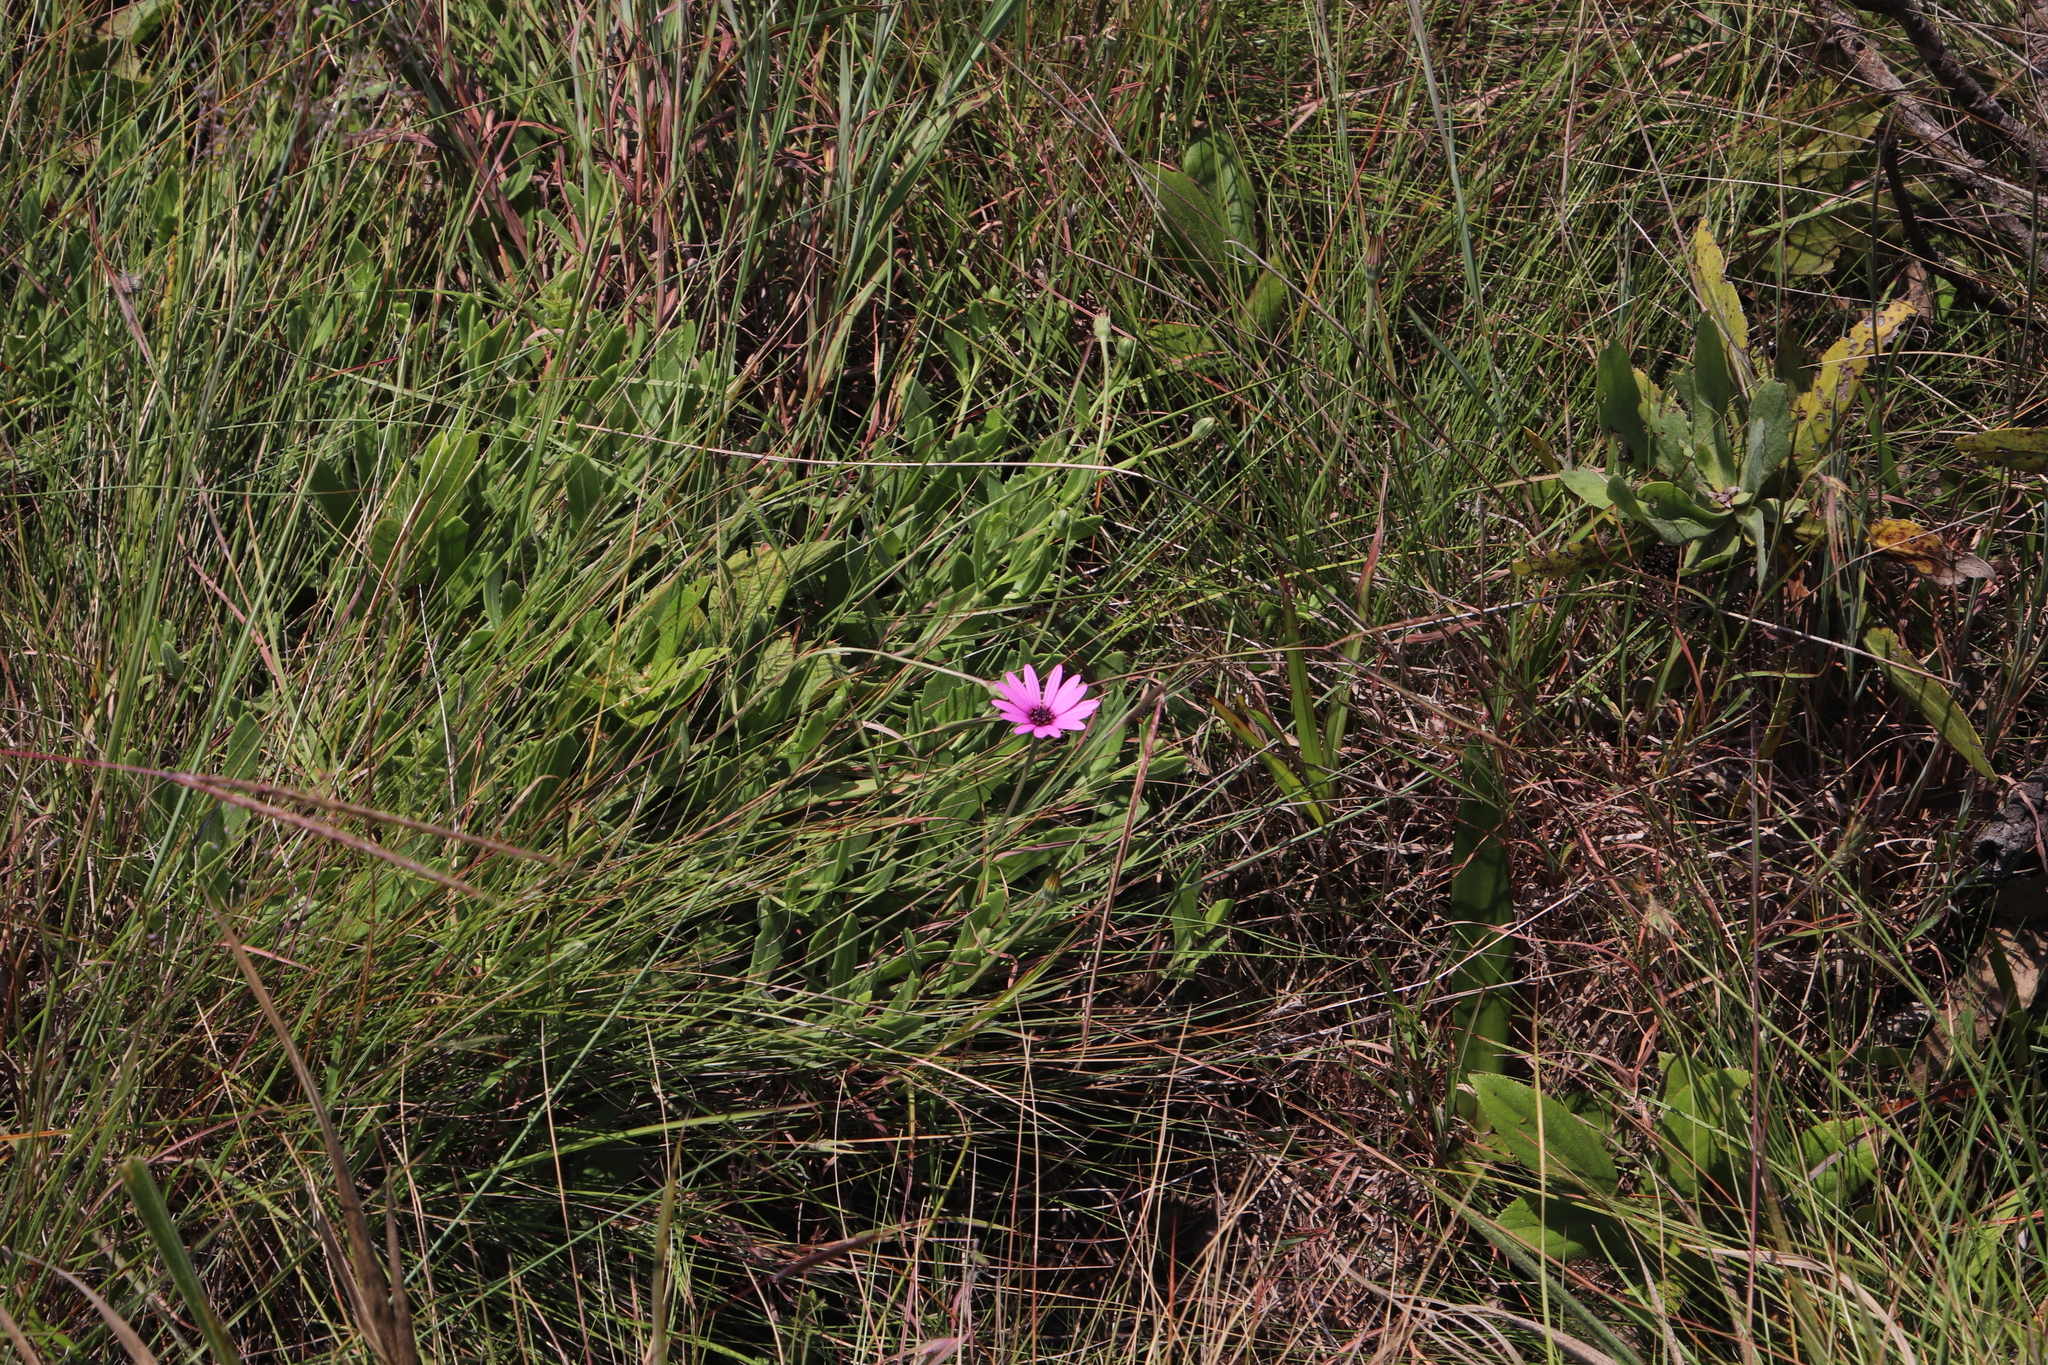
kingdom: Plantae
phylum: Tracheophyta
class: Magnoliopsida
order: Asterales
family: Asteraceae
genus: Dimorphotheca
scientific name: Dimorphotheca jucunda
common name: Osteospermum
